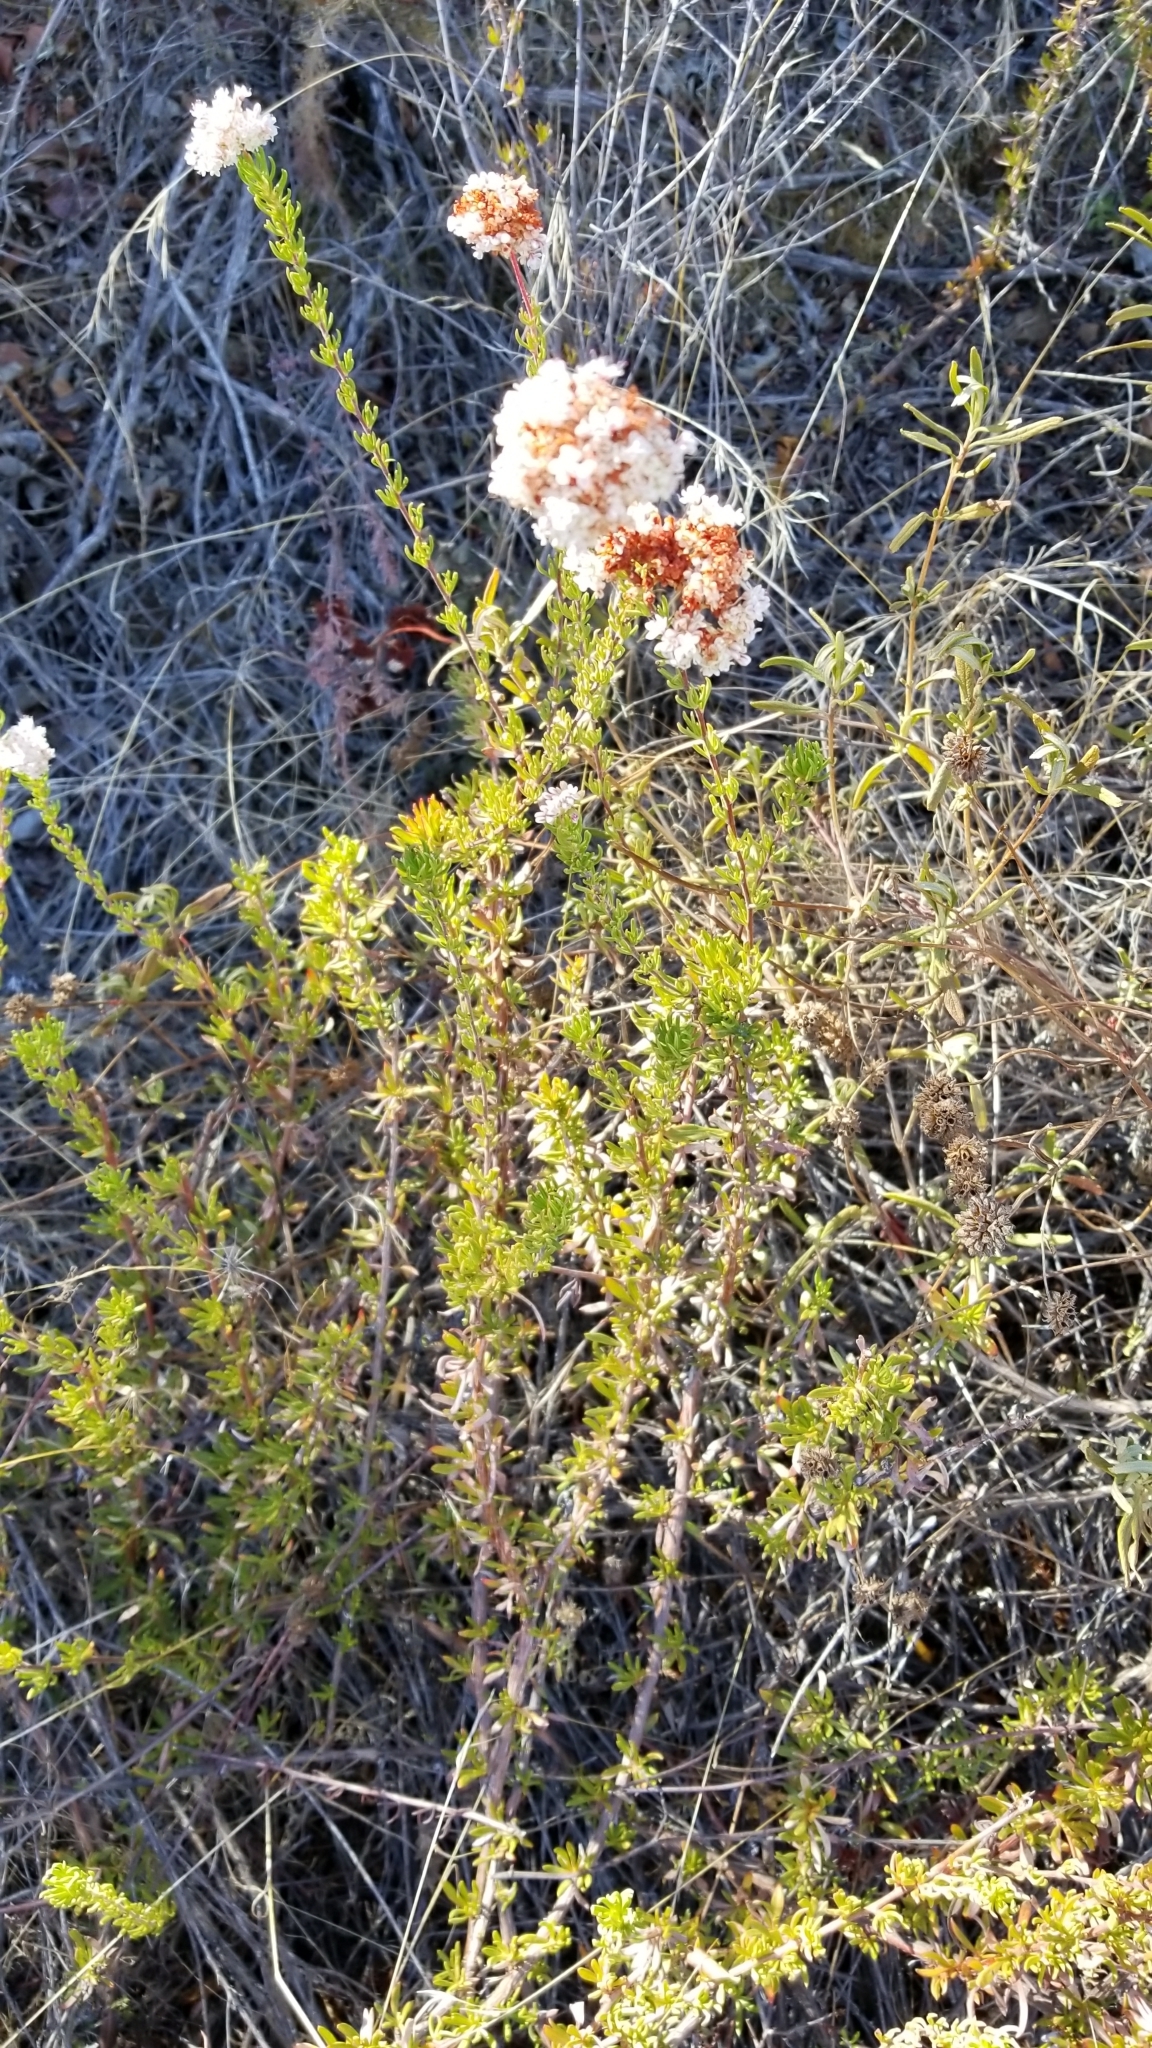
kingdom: Plantae
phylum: Tracheophyta
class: Magnoliopsida
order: Caryophyllales
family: Polygonaceae
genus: Eriogonum
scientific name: Eriogonum fasciculatum
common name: California wild buckwheat
